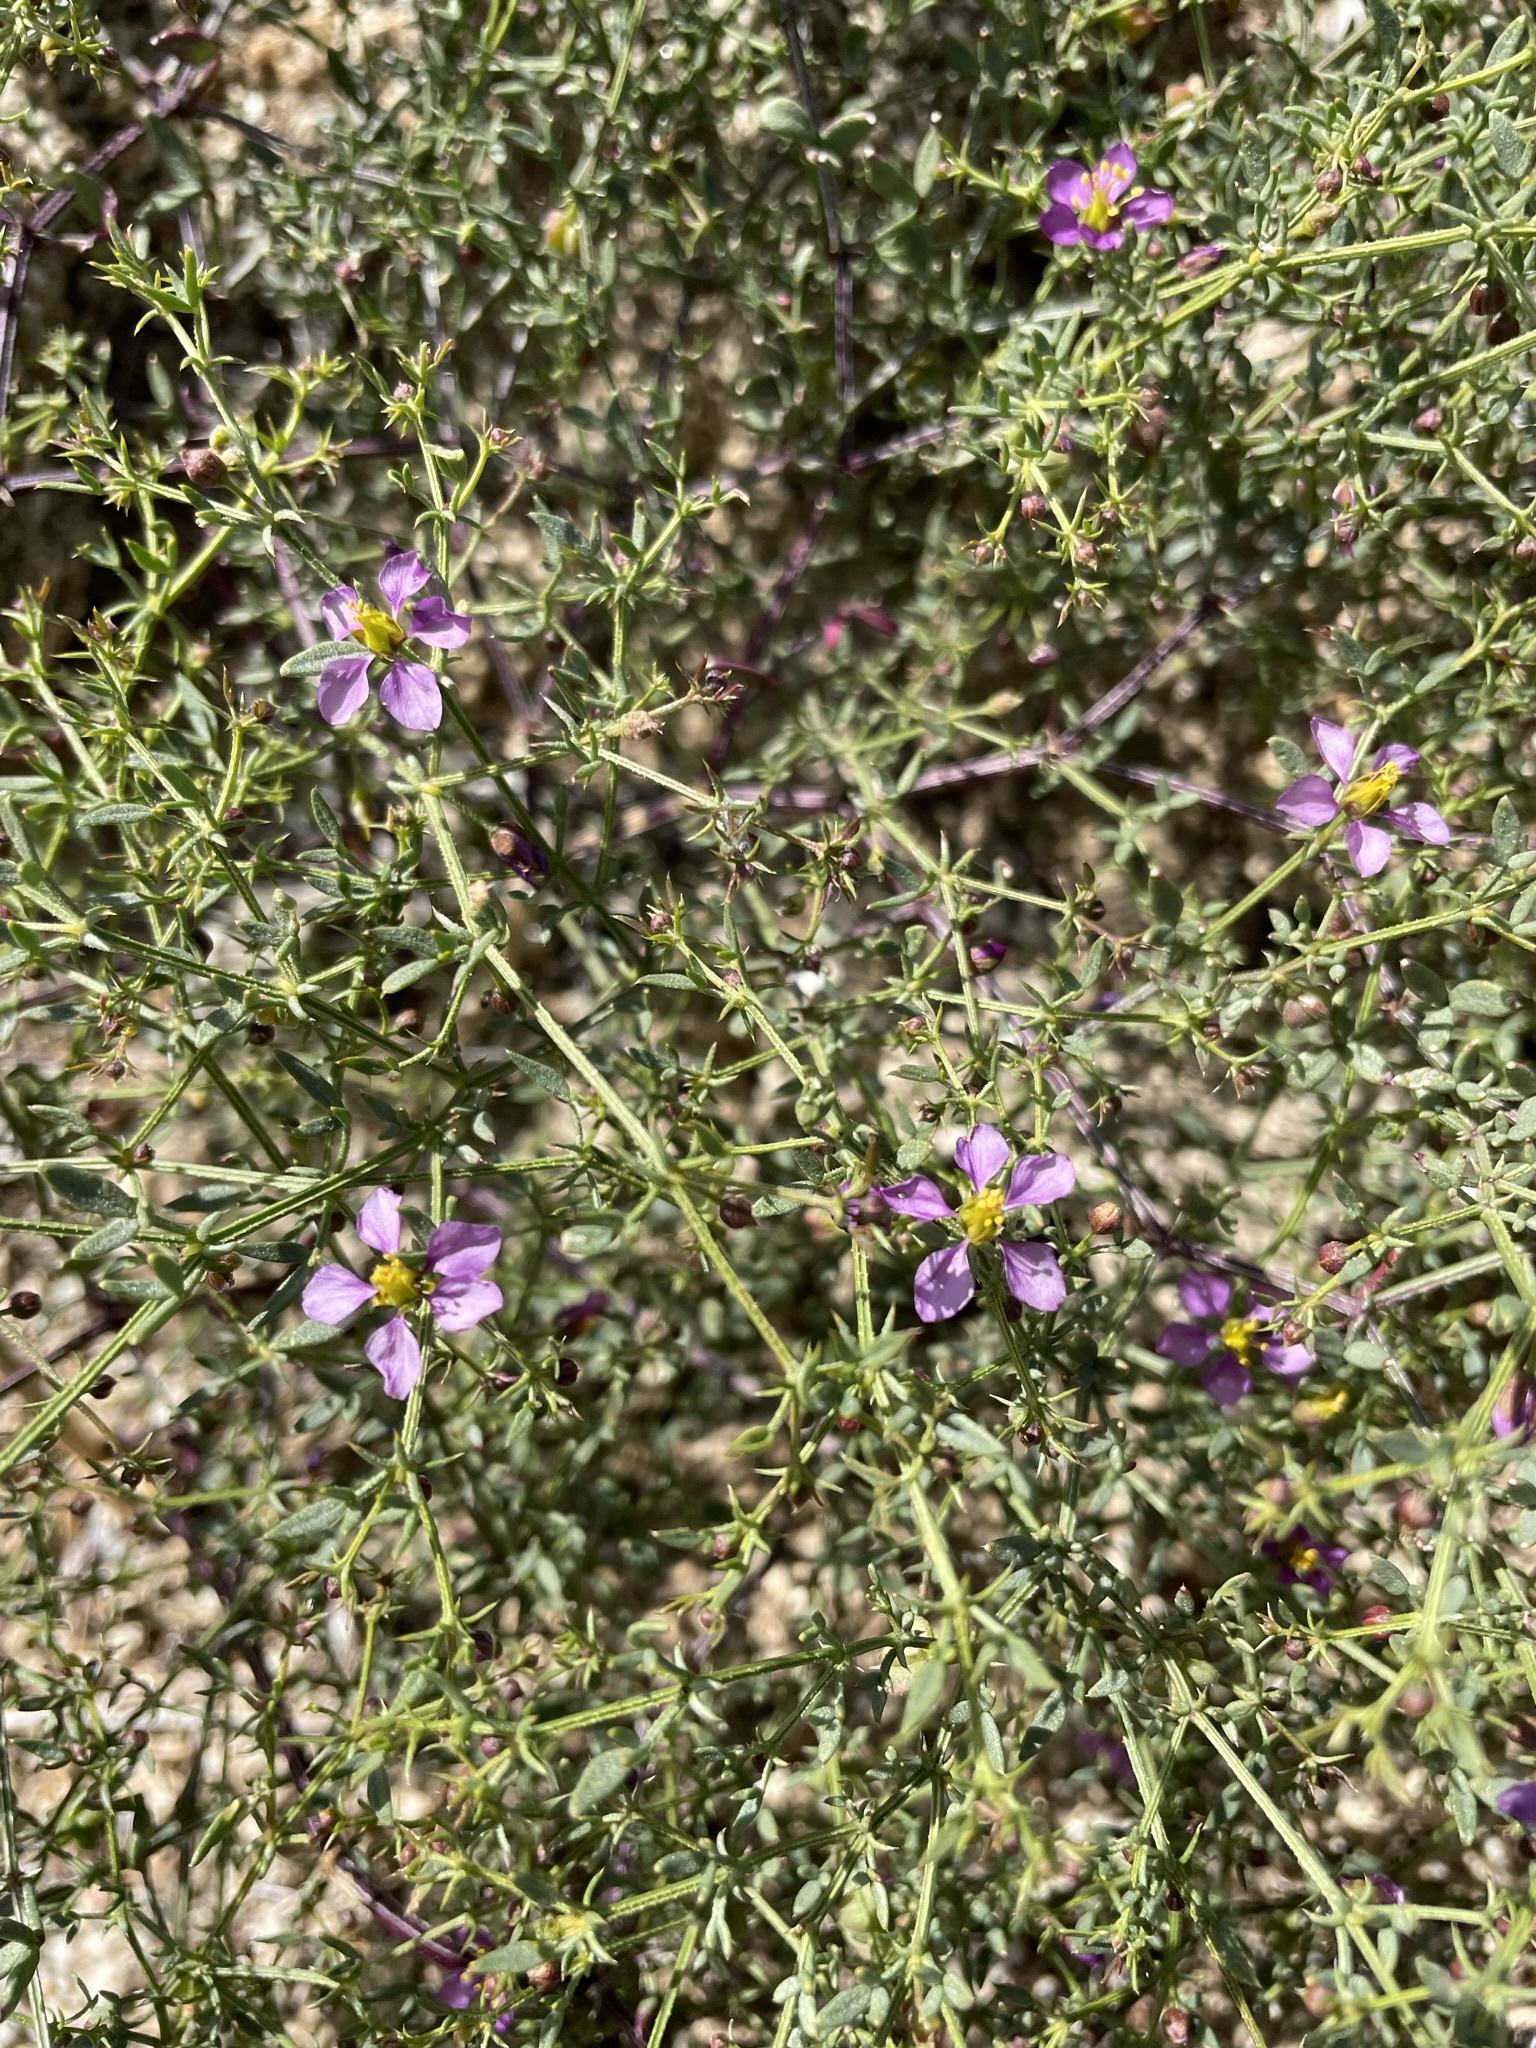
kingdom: Plantae
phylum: Tracheophyta
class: Magnoliopsida
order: Zygophyllales
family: Zygophyllaceae
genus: Fagonia
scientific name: Fagonia laevis
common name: California fagonbush
